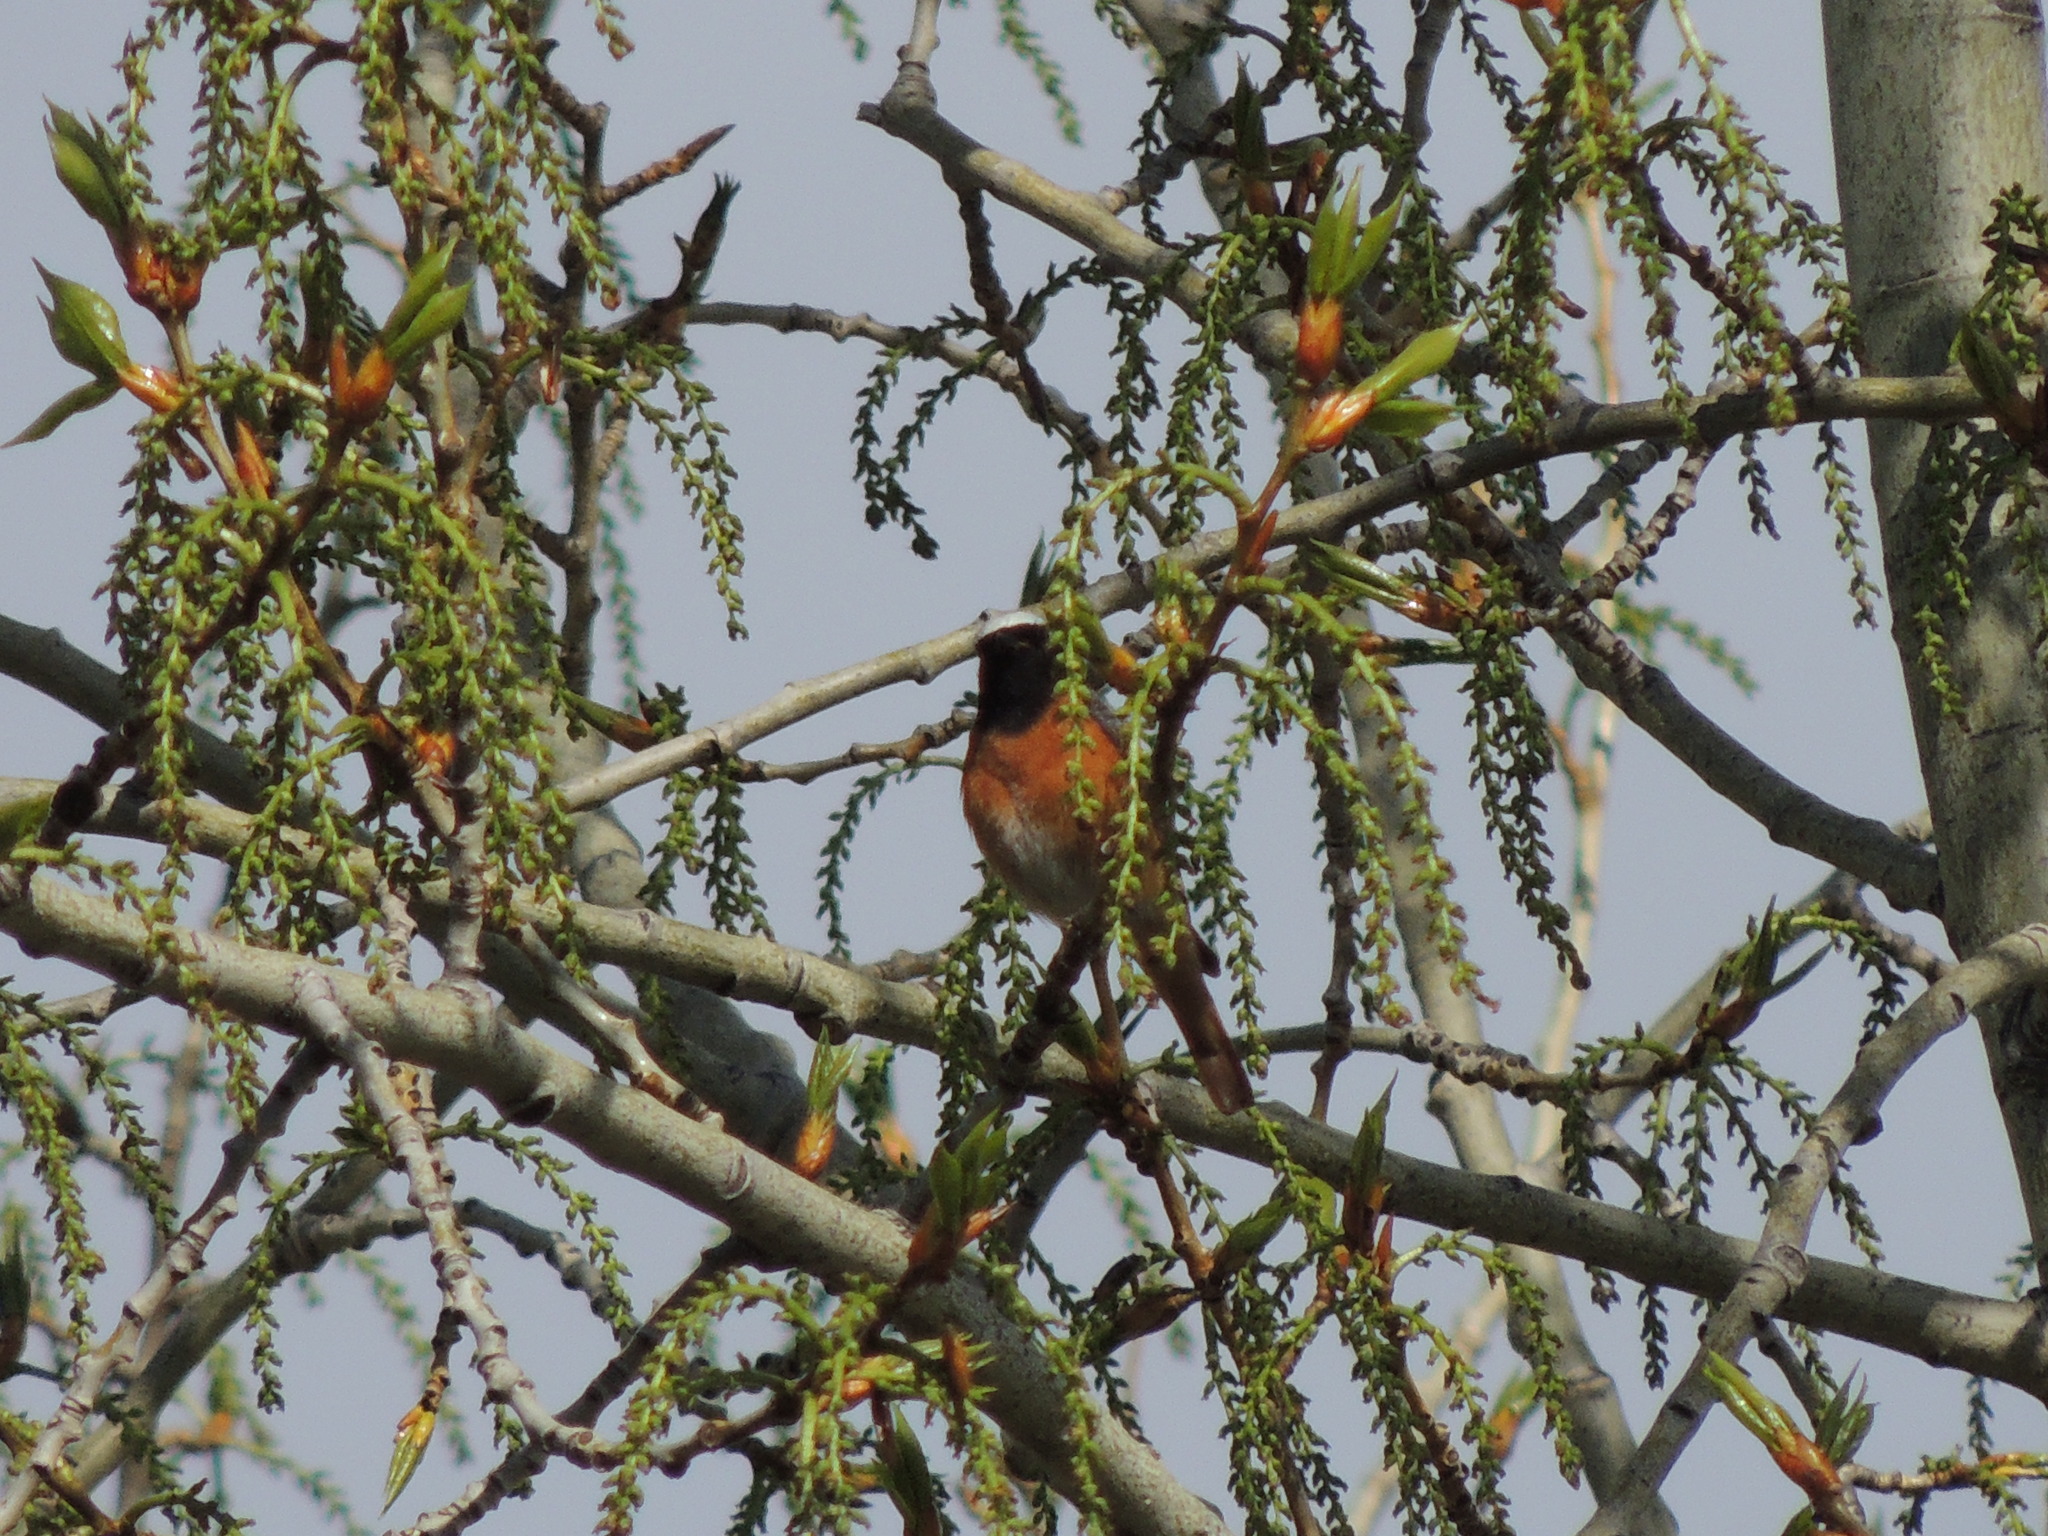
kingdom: Animalia
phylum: Chordata
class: Aves
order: Passeriformes
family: Muscicapidae
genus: Phoenicurus
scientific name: Phoenicurus phoenicurus
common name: Common redstart
